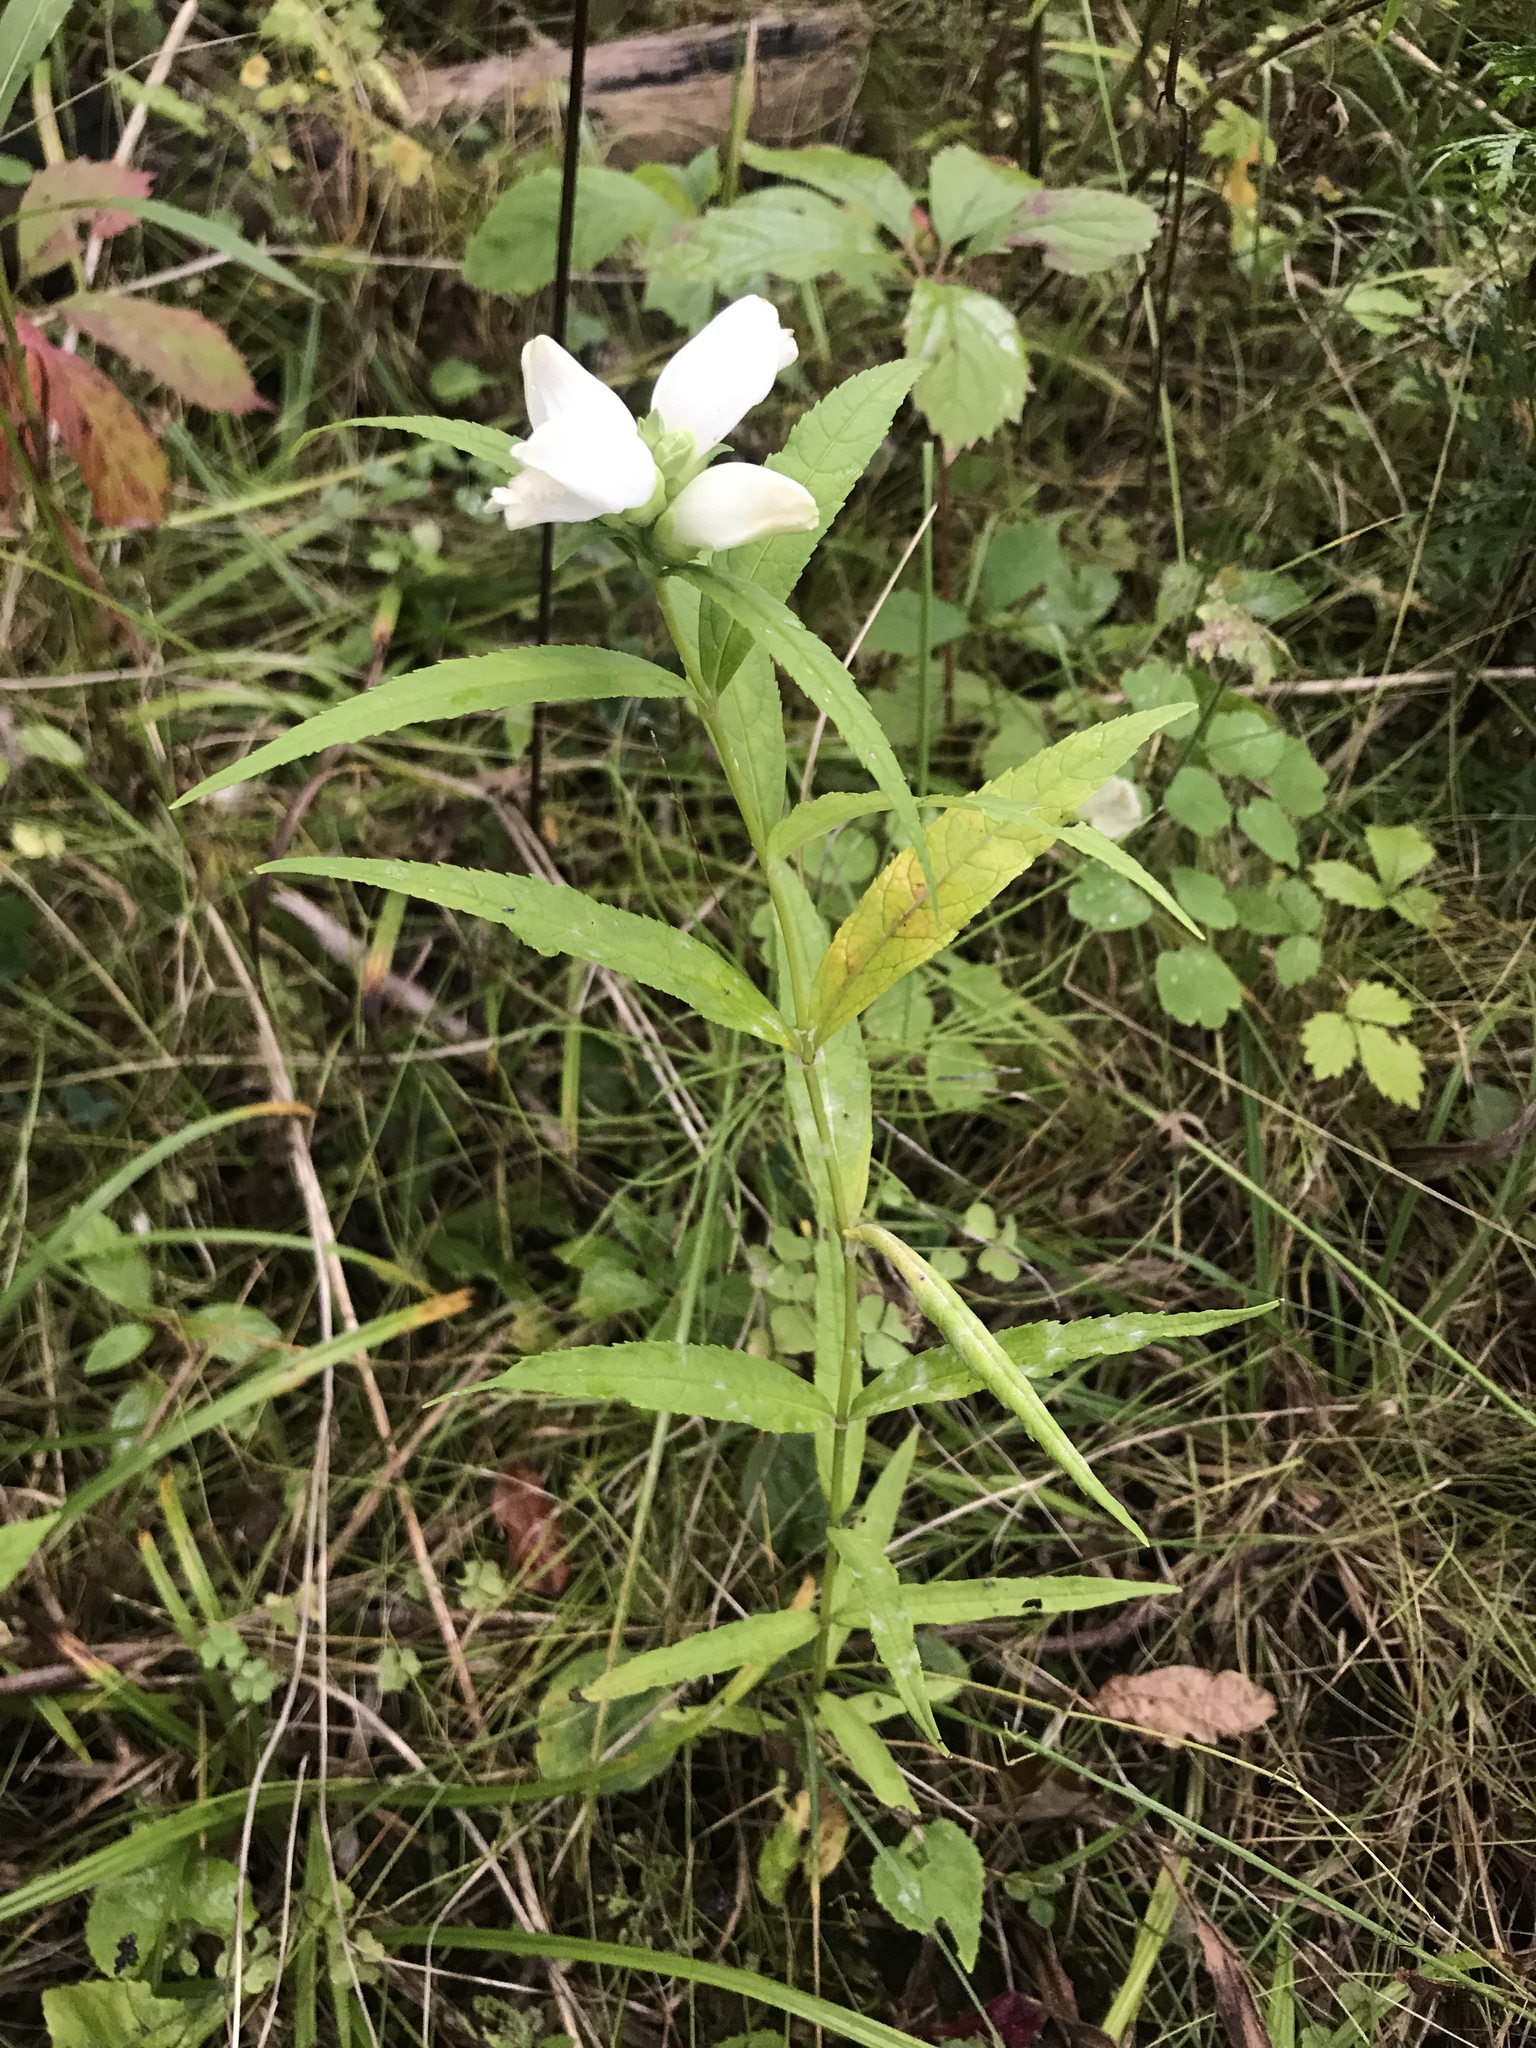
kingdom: Plantae
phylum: Tracheophyta
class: Magnoliopsida
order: Lamiales
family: Plantaginaceae
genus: Chelone
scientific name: Chelone glabra
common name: Snakehead
